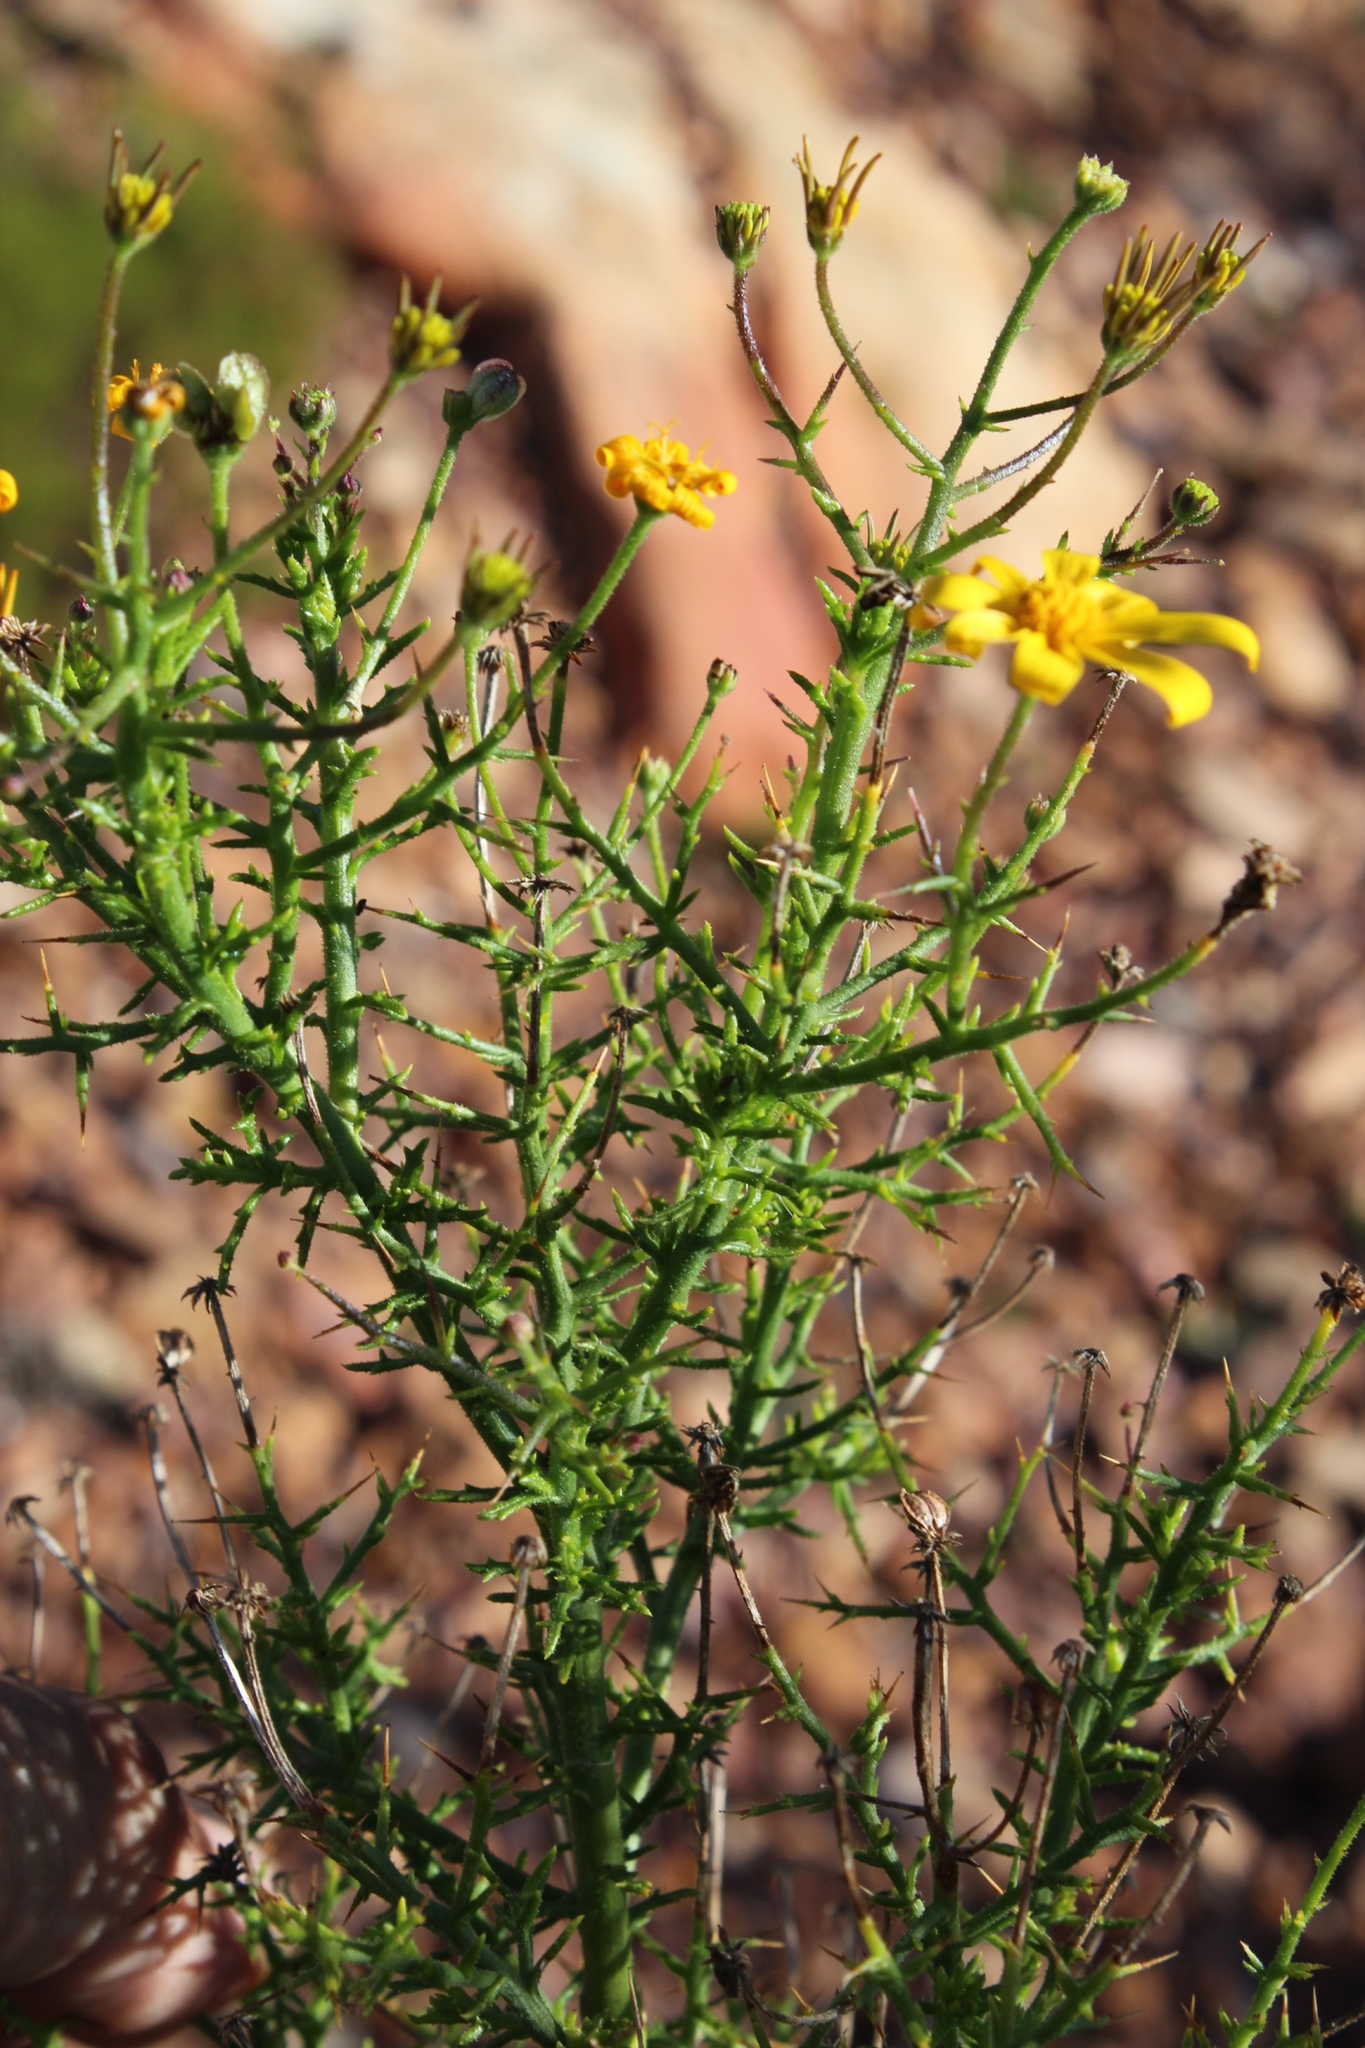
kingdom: Plantae
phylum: Tracheophyta
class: Magnoliopsida
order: Asterales
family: Asteraceae
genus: Osteospermum
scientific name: Osteospermum spinosum
